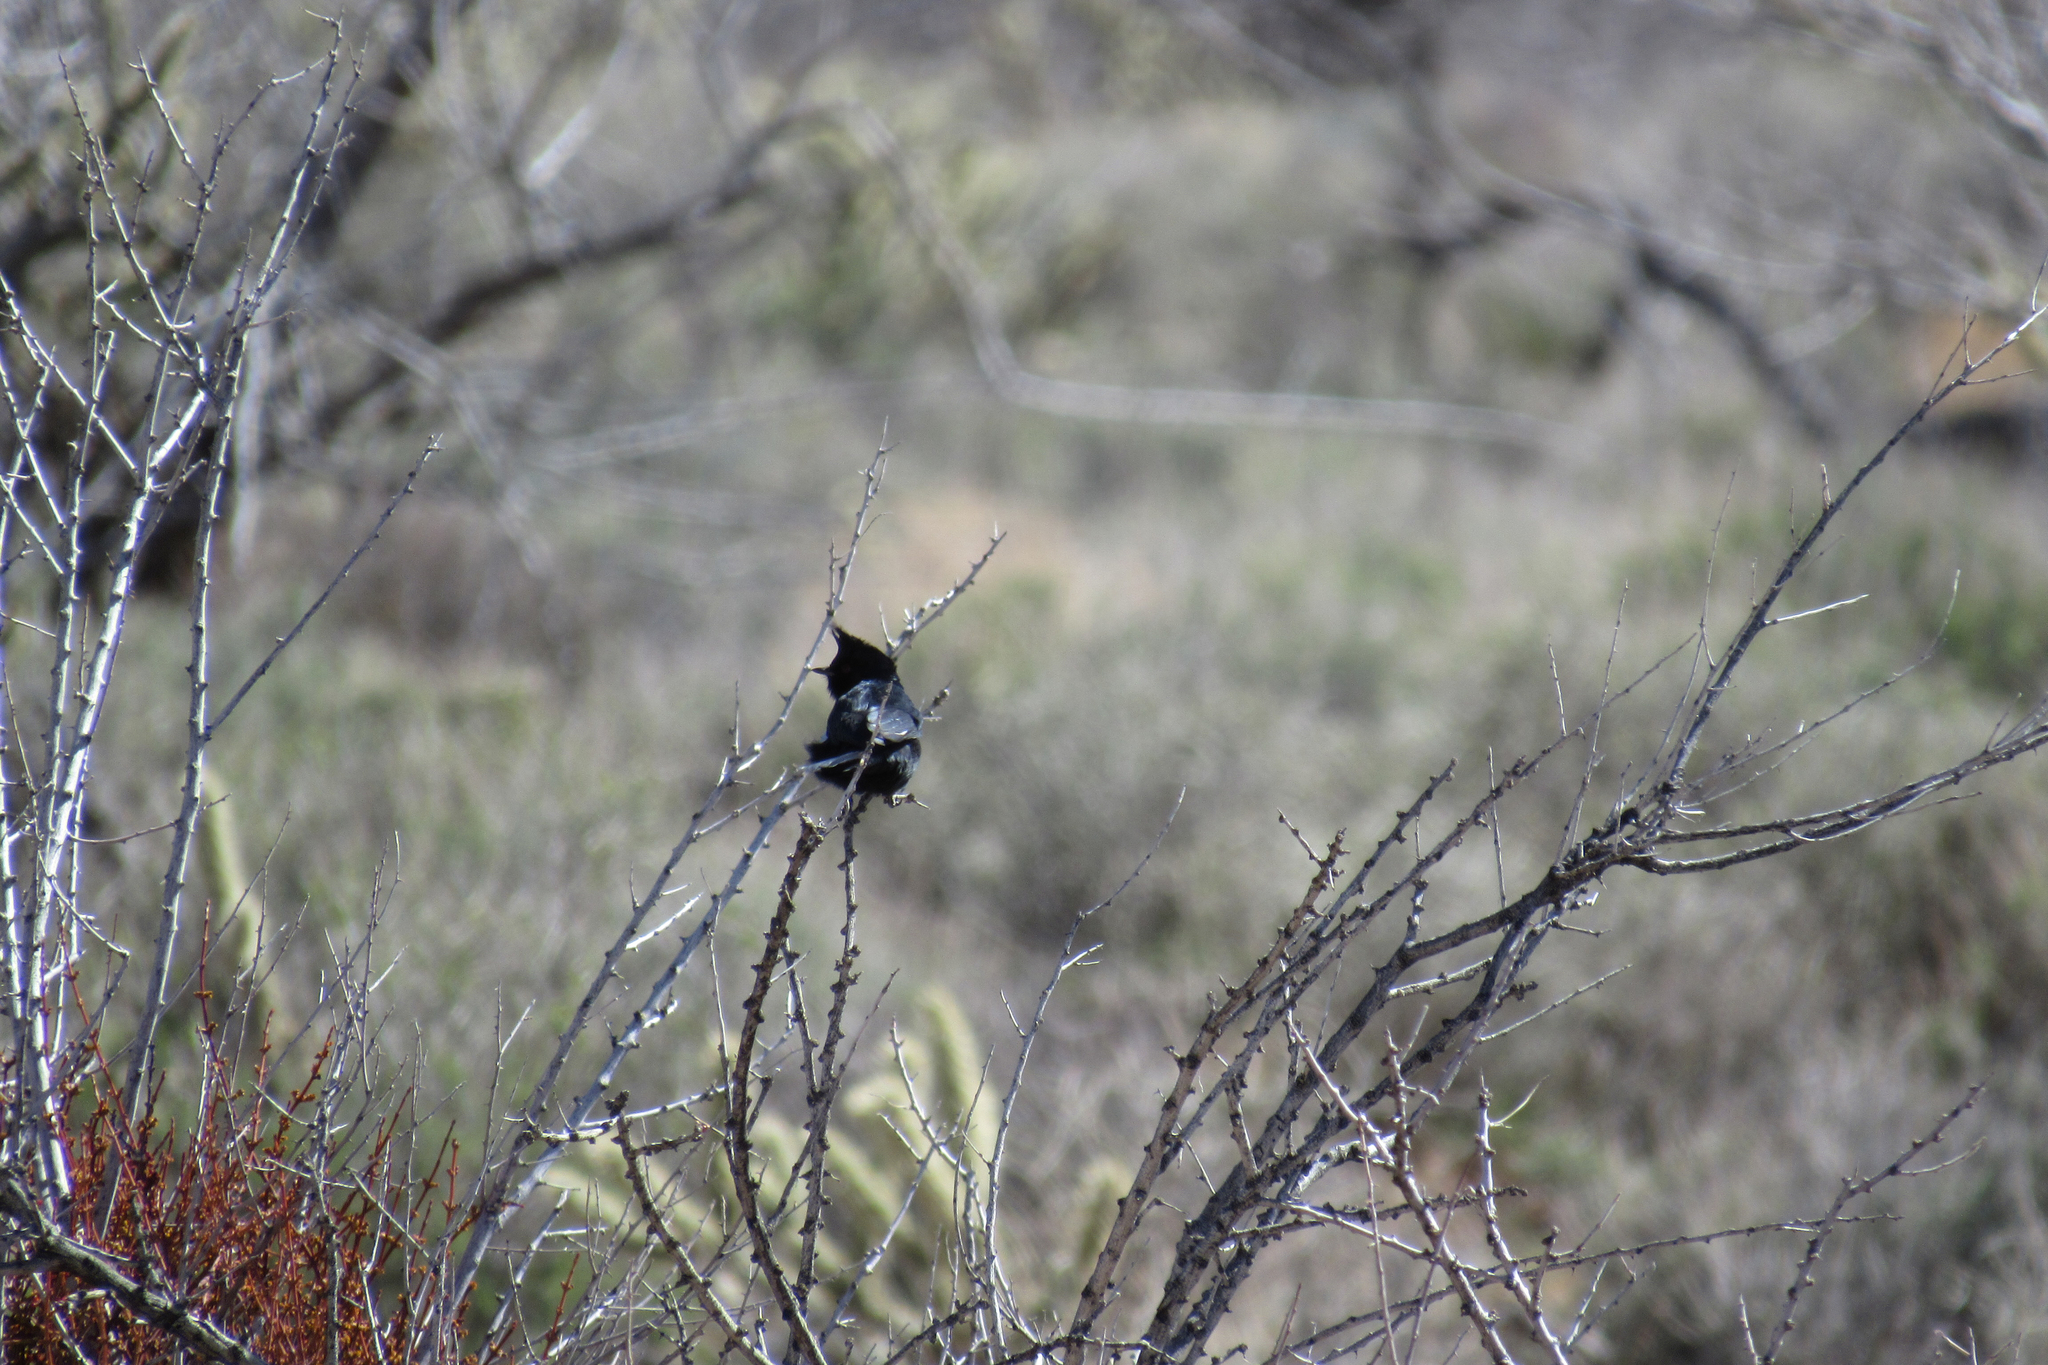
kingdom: Animalia
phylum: Chordata
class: Aves
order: Passeriformes
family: Ptilogonatidae
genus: Phainopepla
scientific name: Phainopepla nitens
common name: Phainopepla
